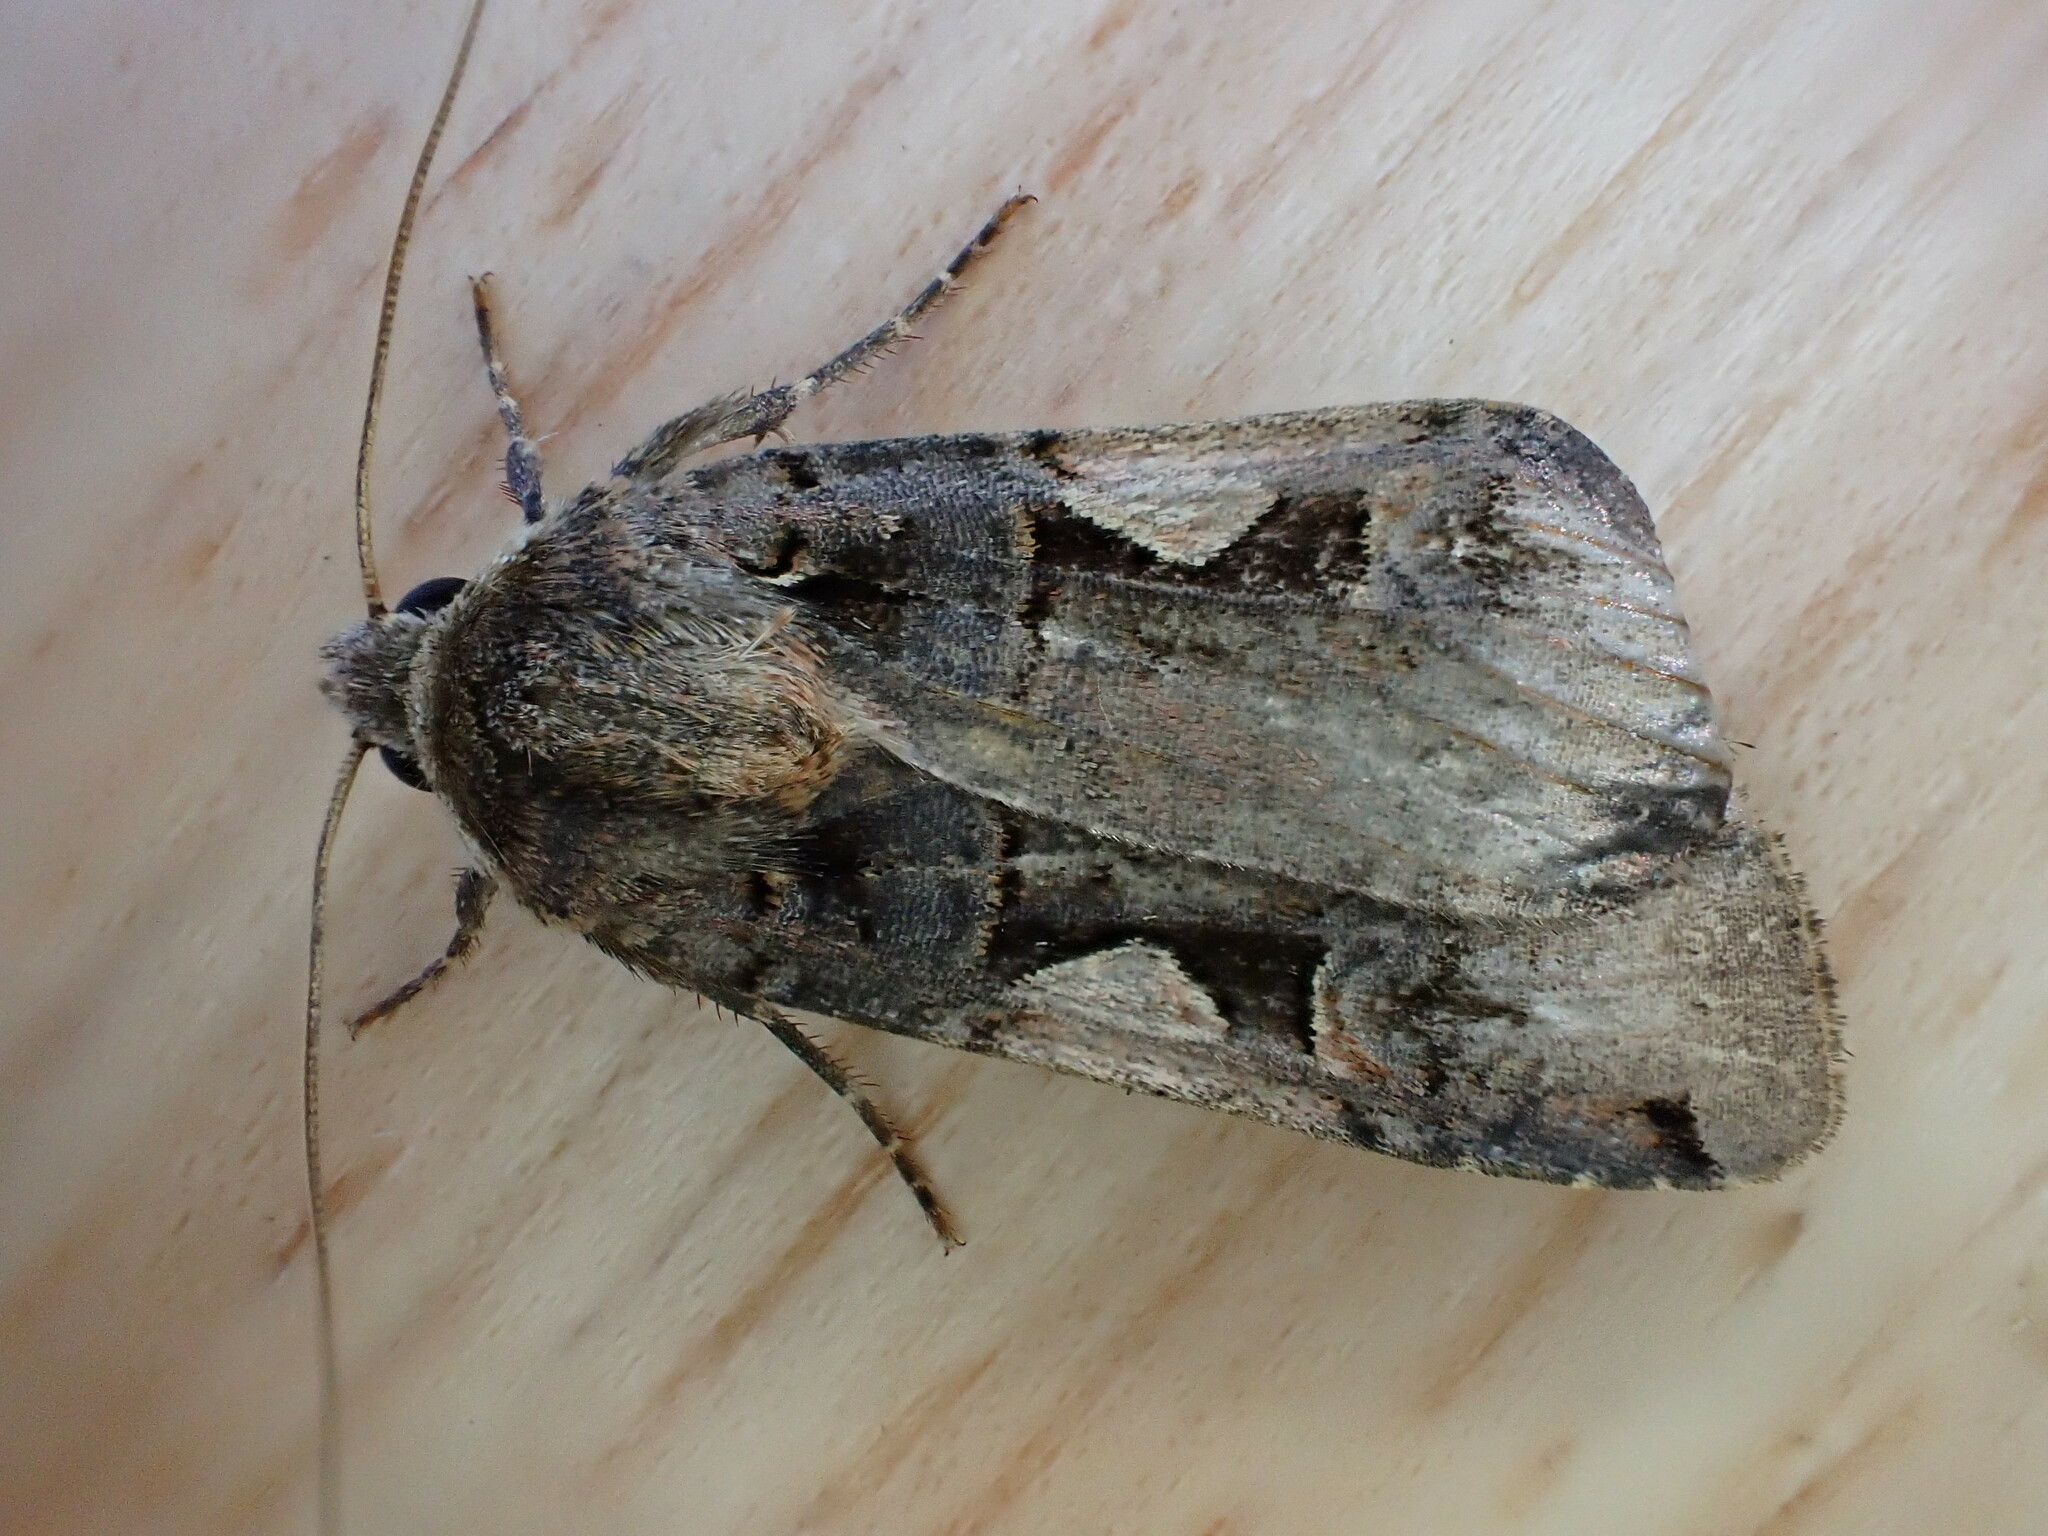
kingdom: Animalia
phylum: Arthropoda
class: Insecta
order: Lepidoptera
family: Noctuidae
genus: Xestia
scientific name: Xestia c-nigrum
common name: Setaceous hebrew character
